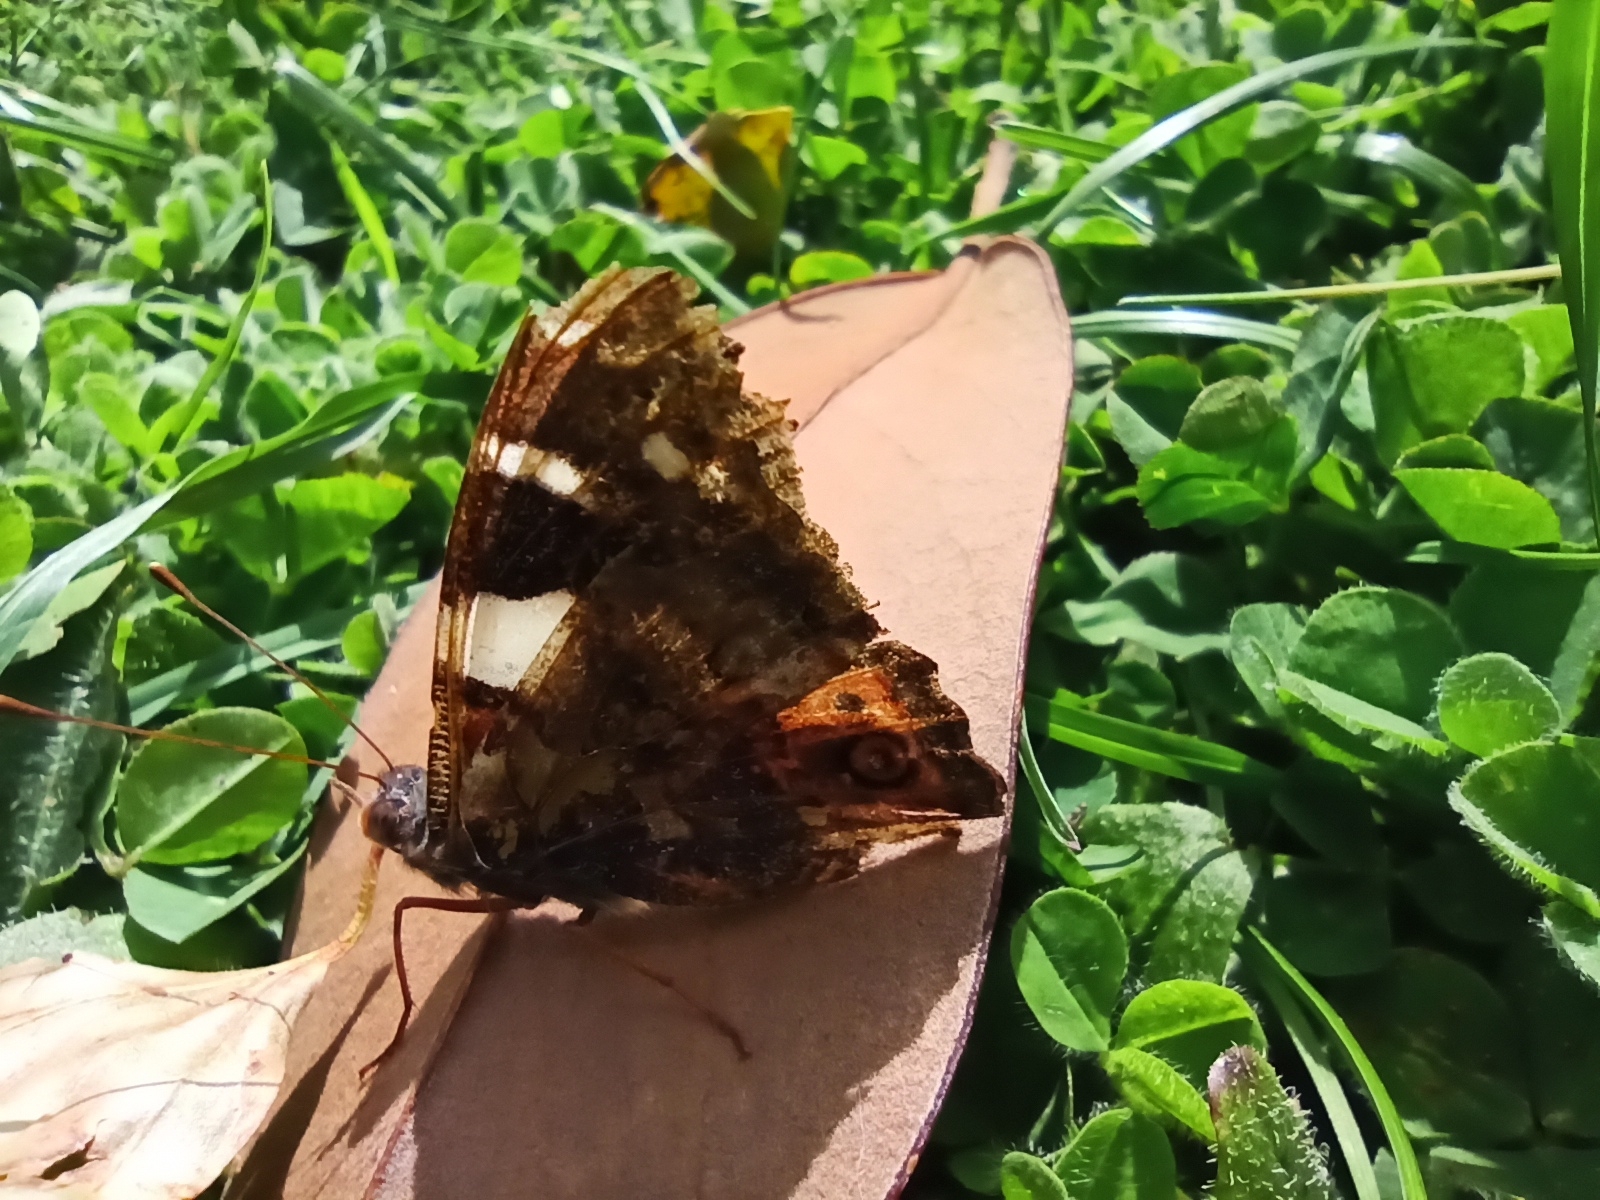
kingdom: Animalia
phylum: Arthropoda
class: Insecta
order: Lepidoptera
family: Nymphalidae
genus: Vanessa
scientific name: Vanessa itea
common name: Yellow admiral
